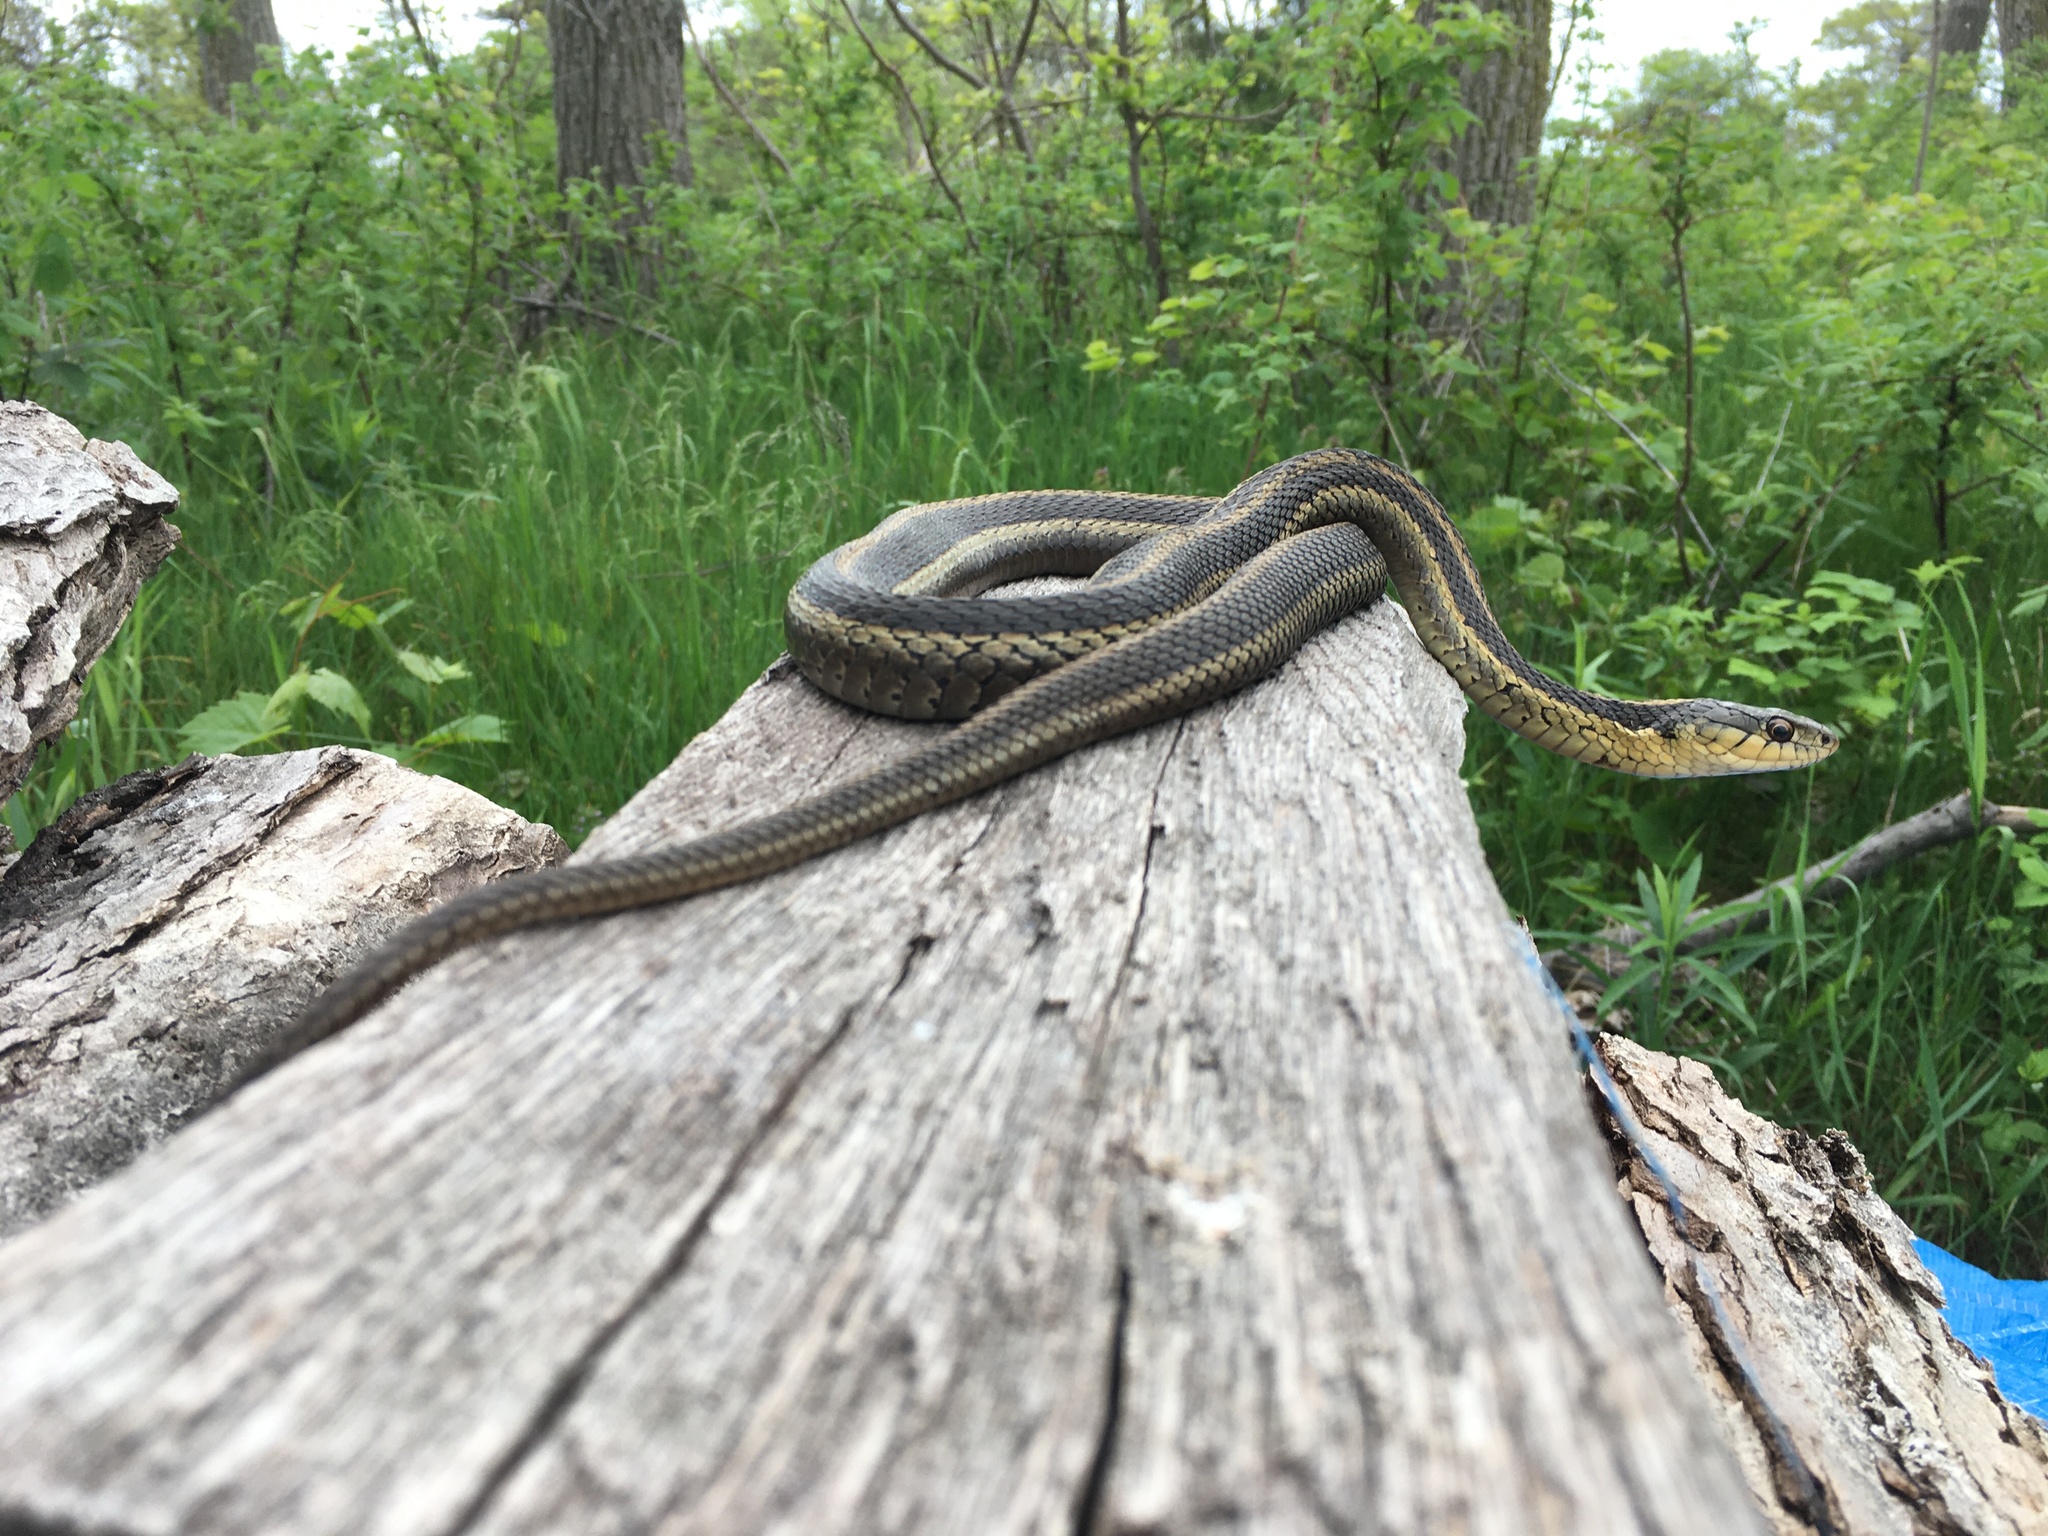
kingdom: Animalia
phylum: Chordata
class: Squamata
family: Colubridae
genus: Thamnophis
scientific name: Thamnophis sirtalis
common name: Common garter snake
